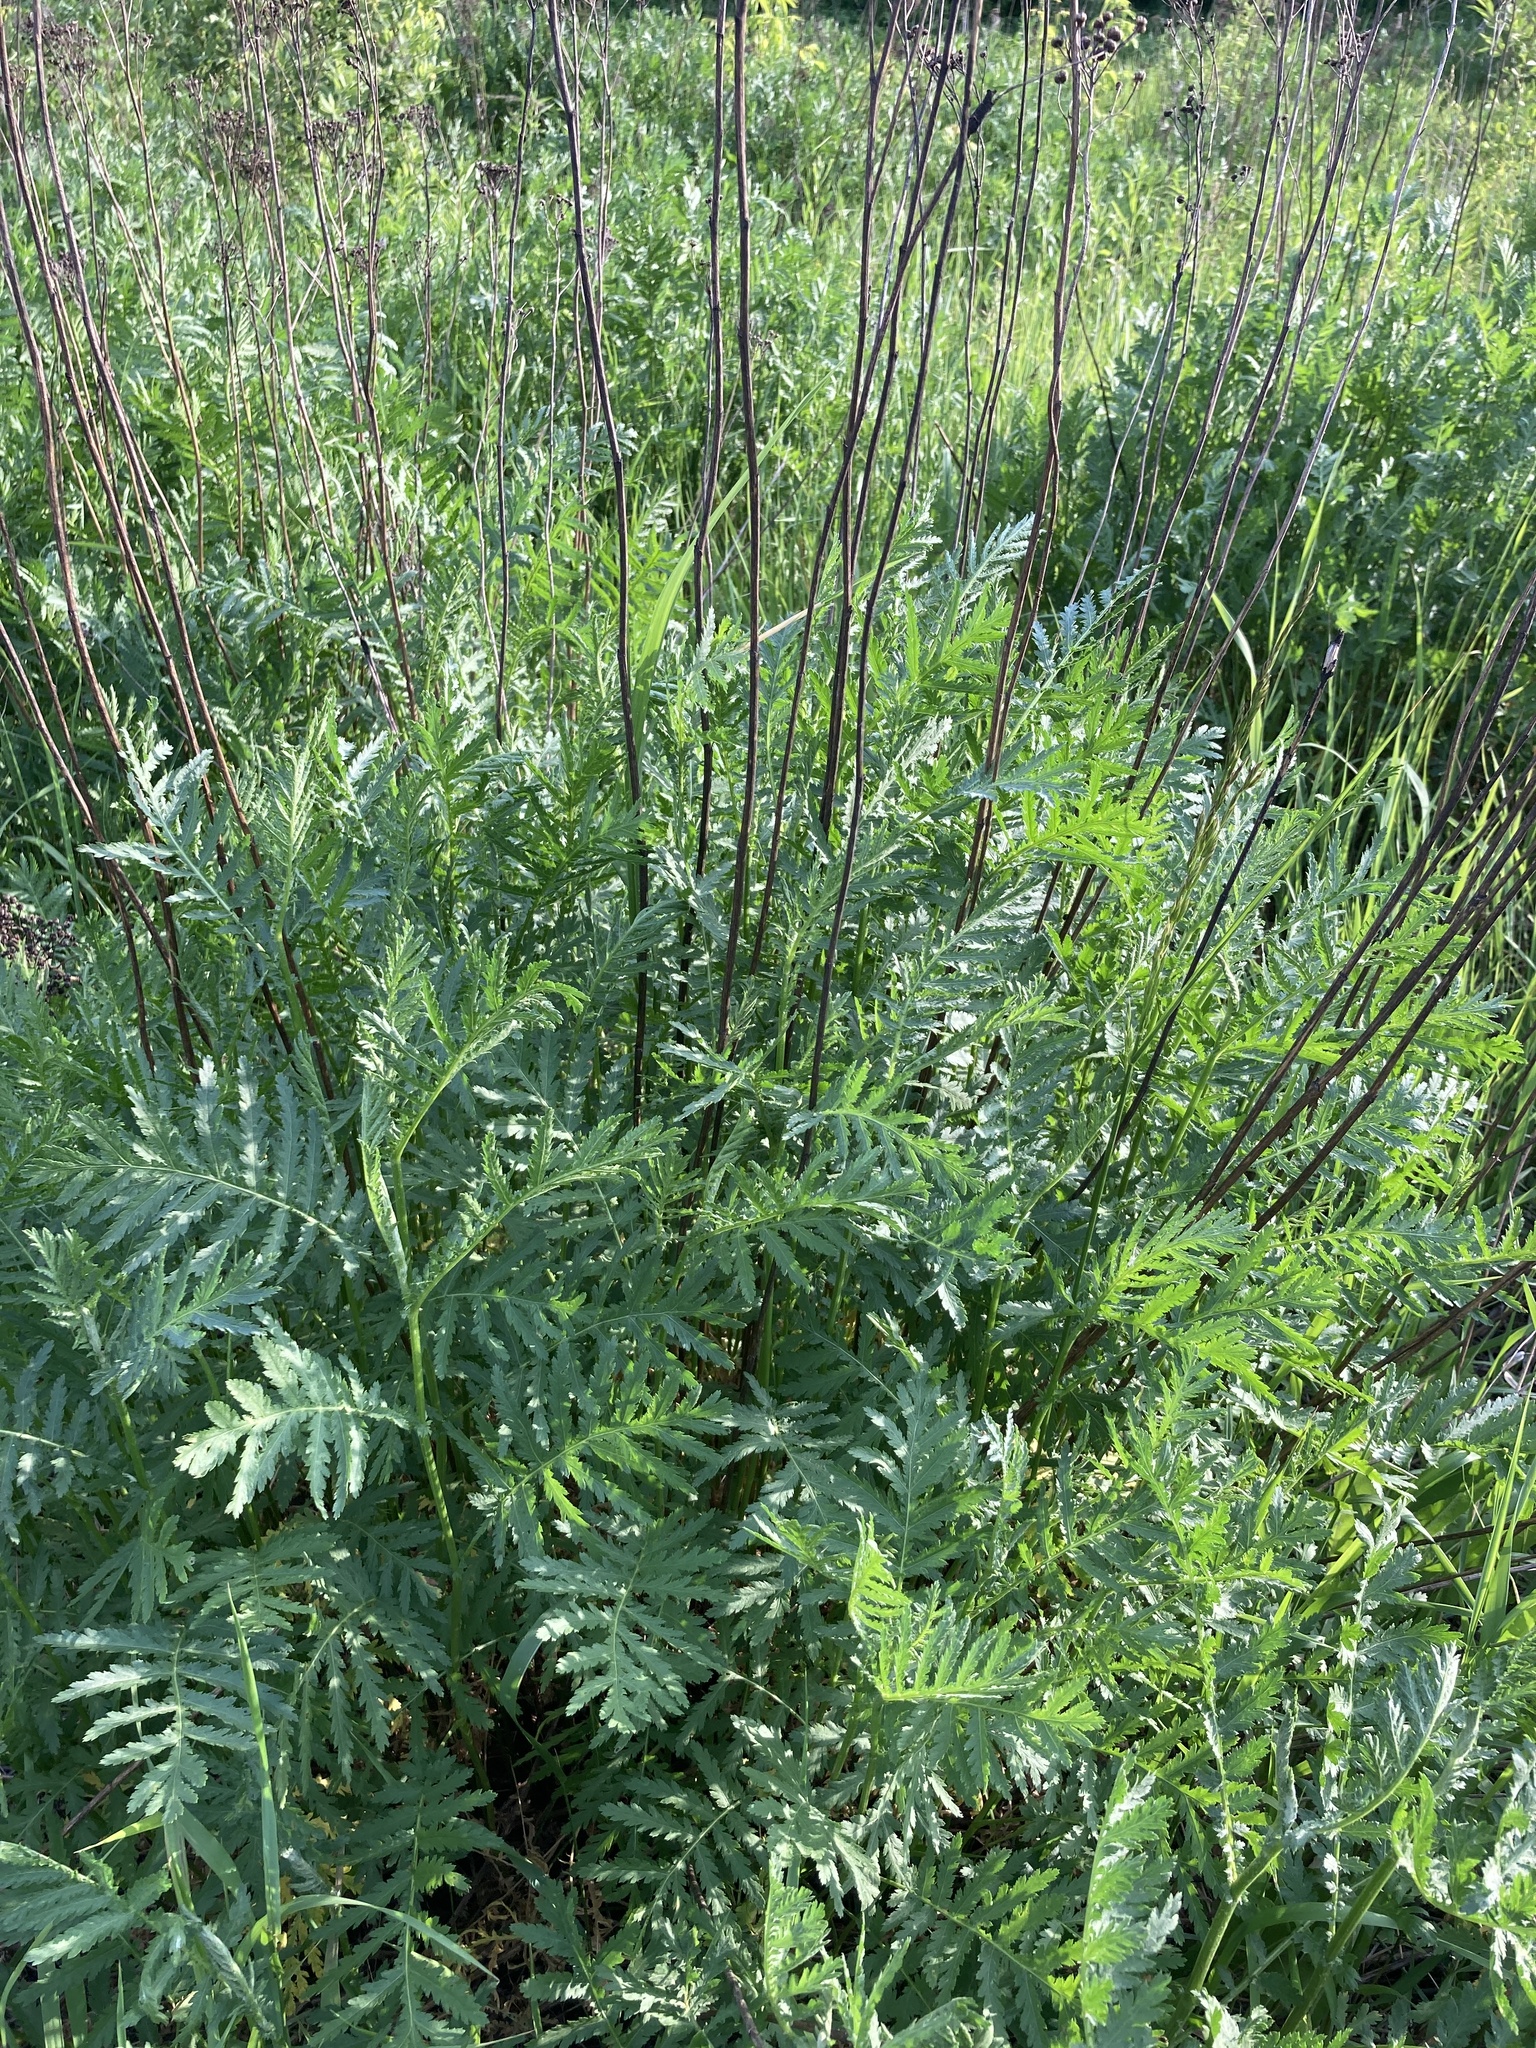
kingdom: Plantae
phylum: Tracheophyta
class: Magnoliopsida
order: Asterales
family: Asteraceae
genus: Tanacetum
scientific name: Tanacetum vulgare
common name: Common tansy
